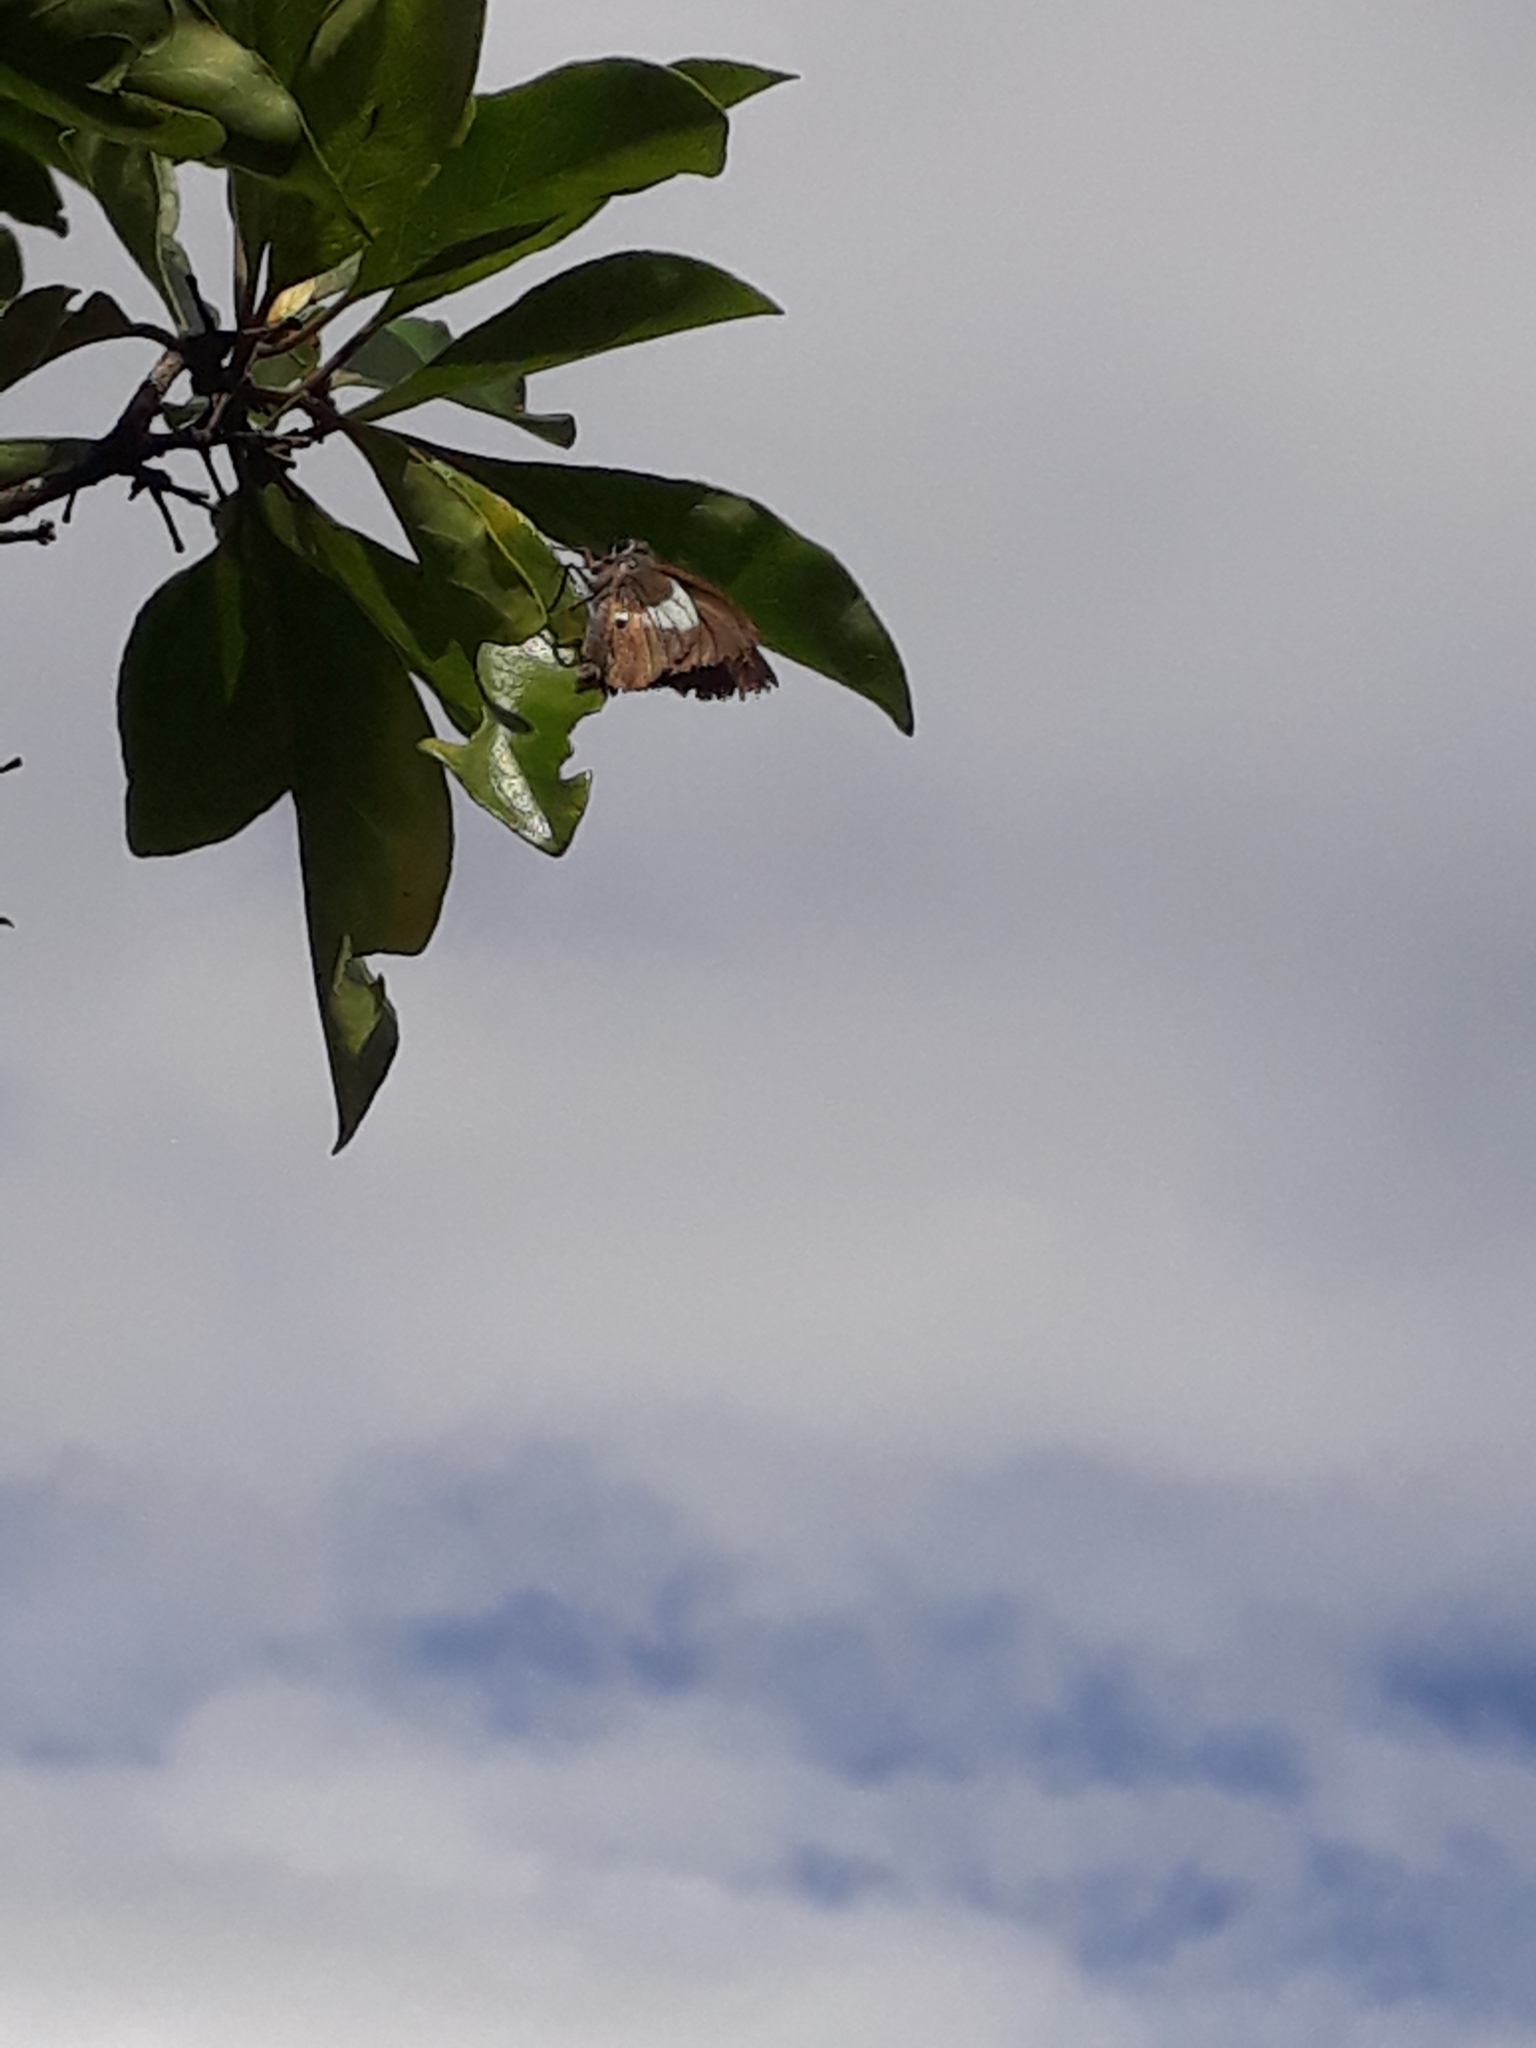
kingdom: Animalia
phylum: Arthropoda
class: Insecta
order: Lepidoptera
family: Hesperiidae
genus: Coeliades
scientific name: Coeliades
